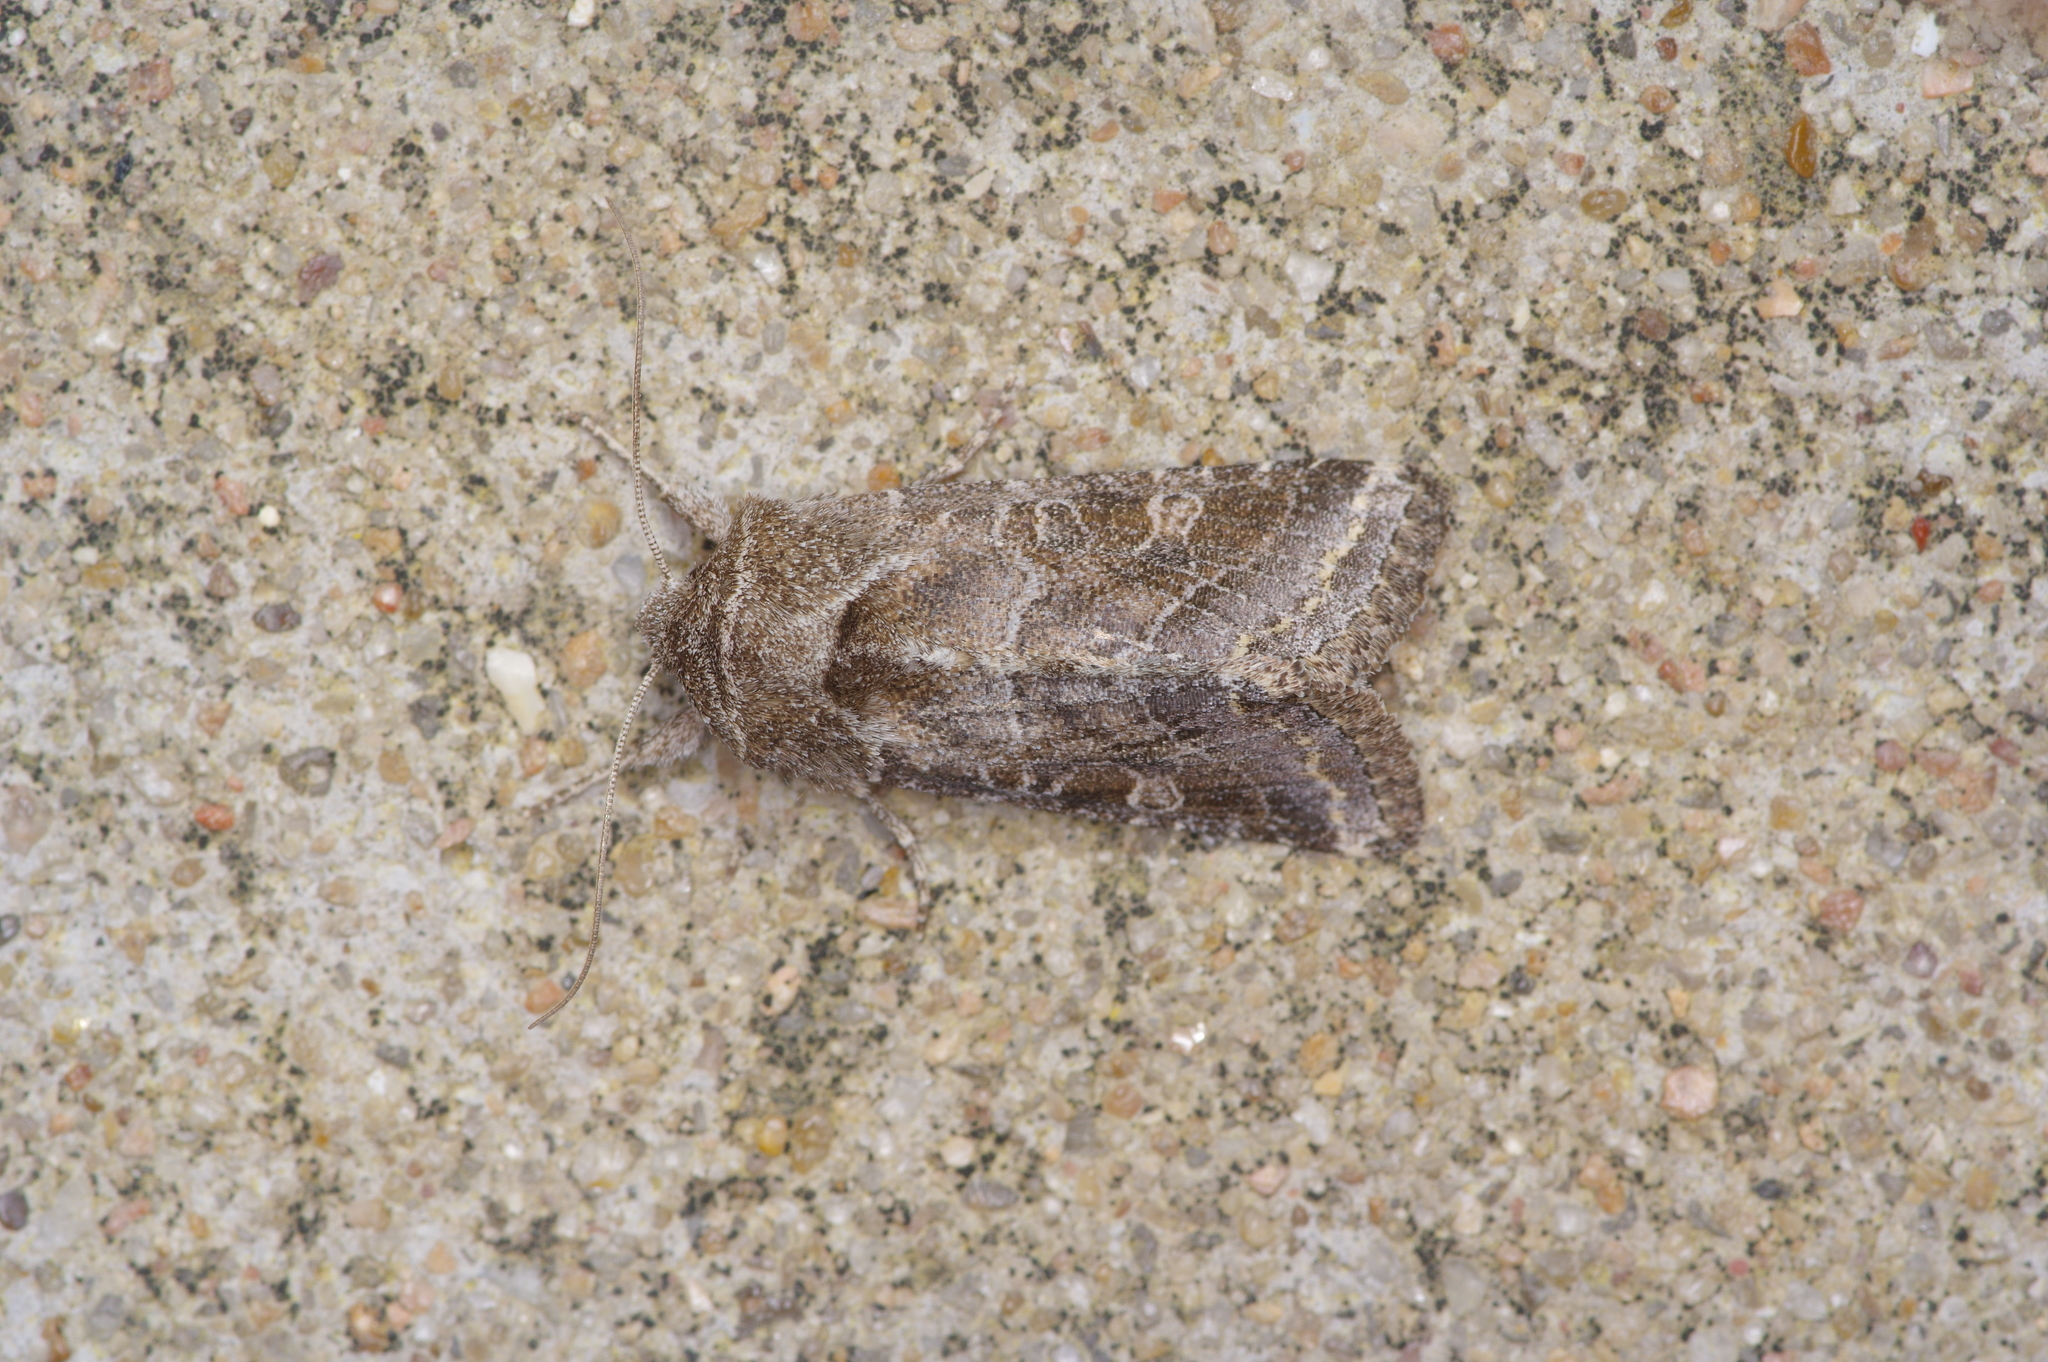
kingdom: Animalia
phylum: Arthropoda
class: Insecta
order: Lepidoptera
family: Noctuidae
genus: Lacinipolia
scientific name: Lacinipolia erecta
